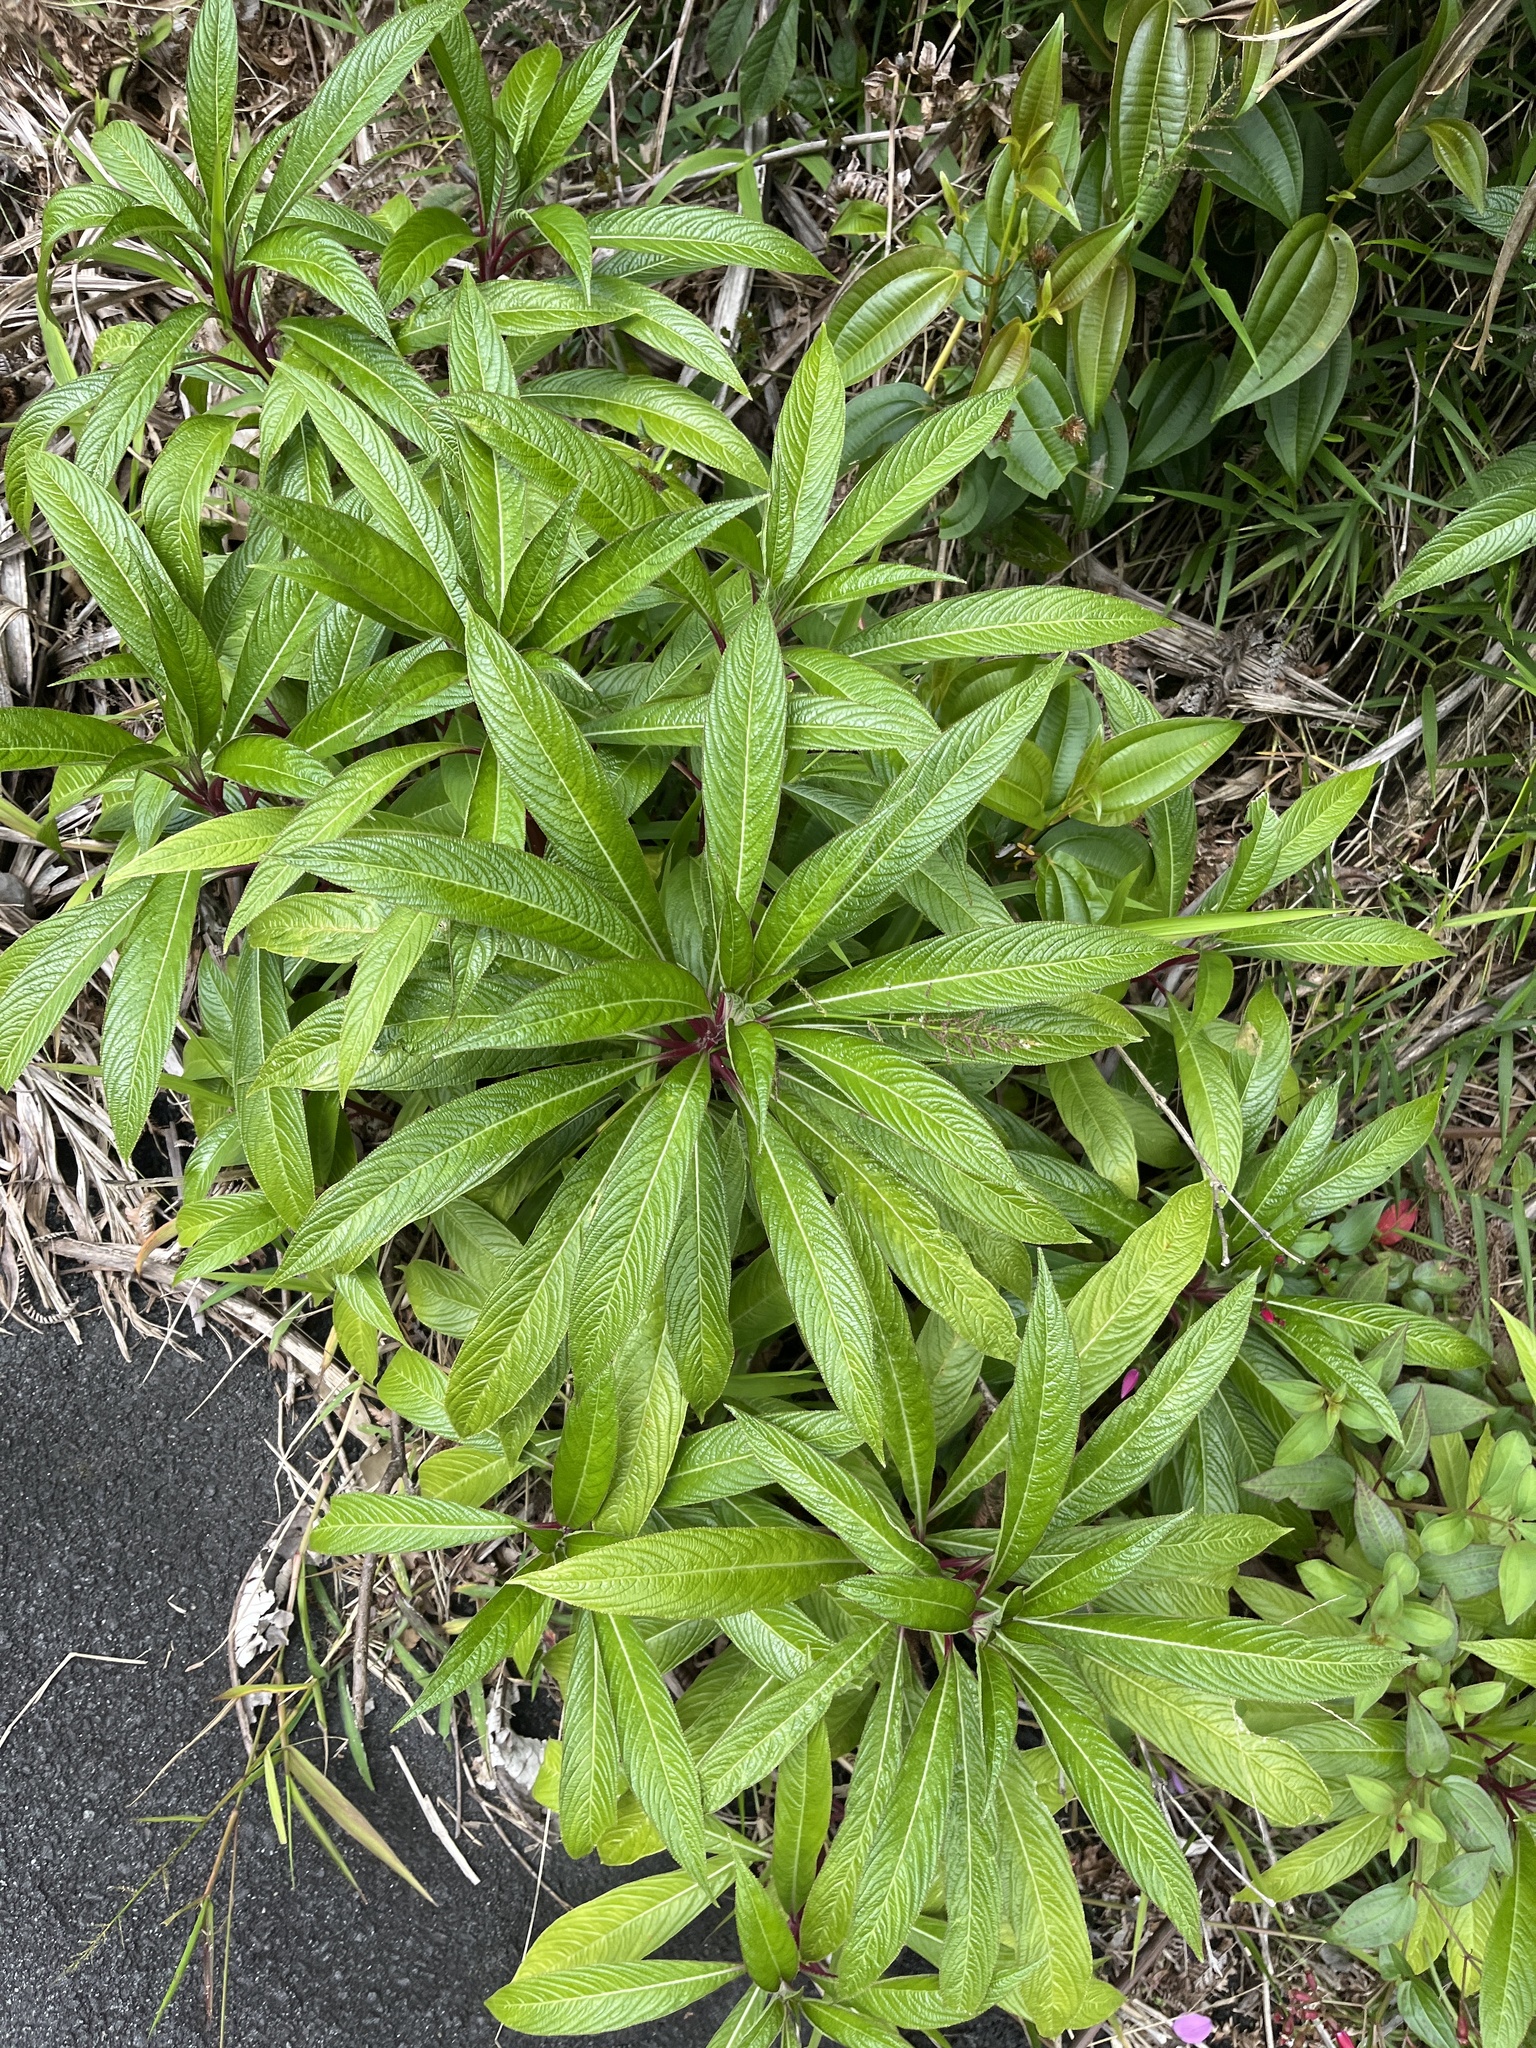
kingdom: Plantae
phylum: Tracheophyta
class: Magnoliopsida
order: Asterales
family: Campanulaceae
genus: Lobelia
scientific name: Lobelia portoricensis
